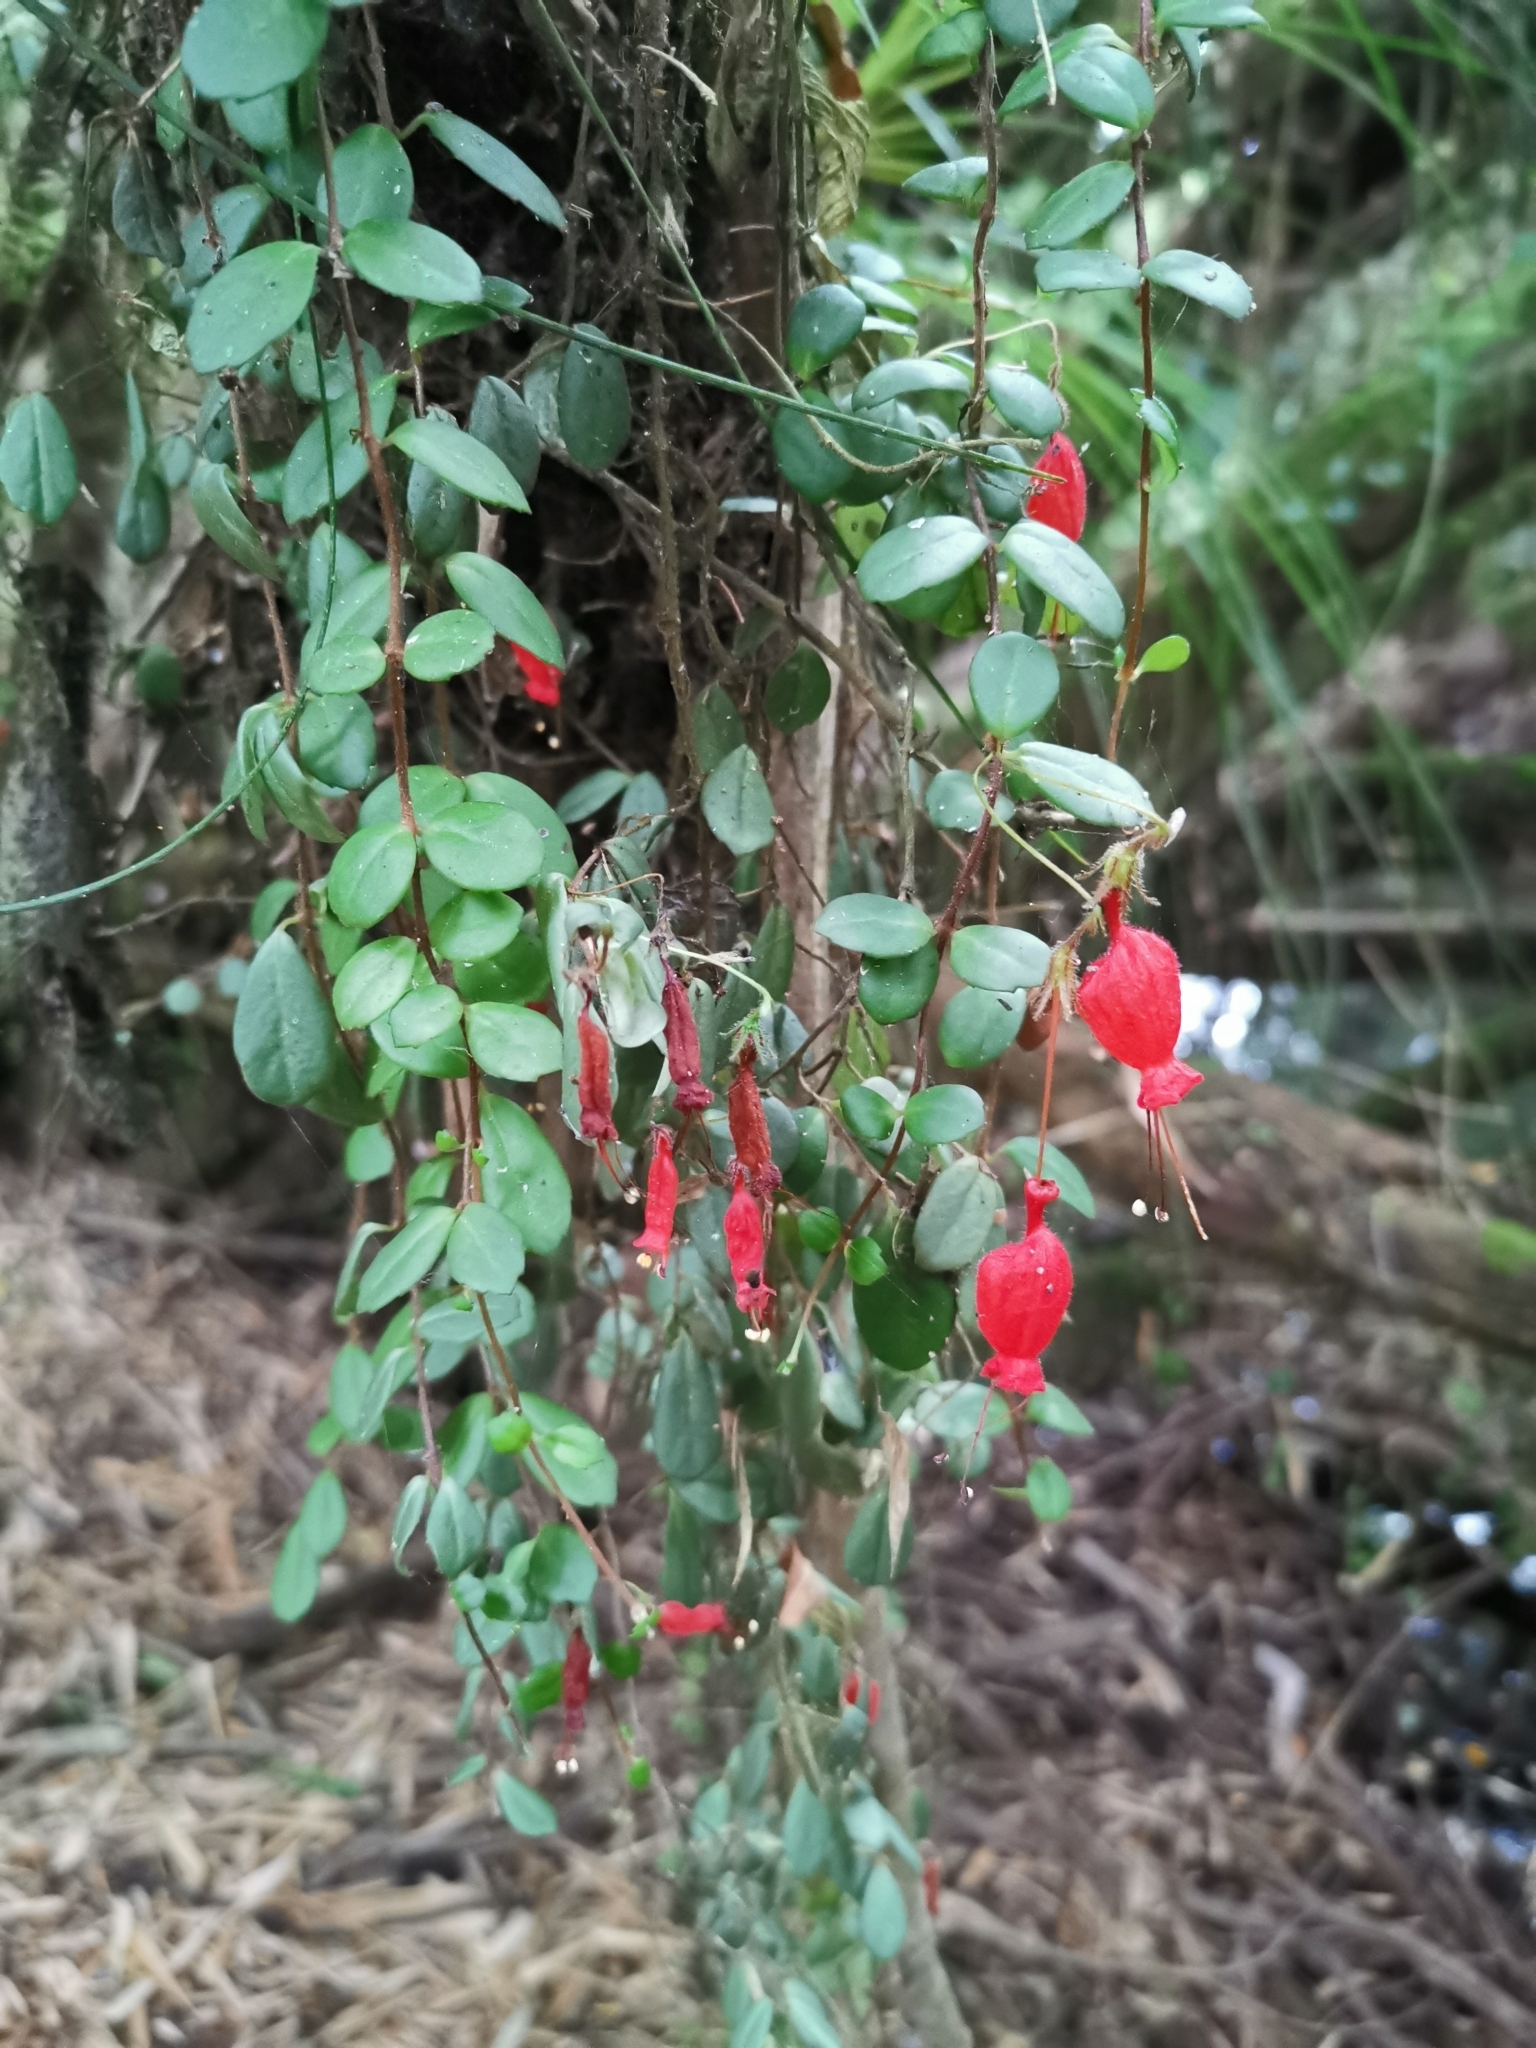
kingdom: Plantae
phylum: Tracheophyta
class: Magnoliopsida
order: Lamiales
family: Gesneriaceae
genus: Sarmienta
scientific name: Sarmienta scandens
